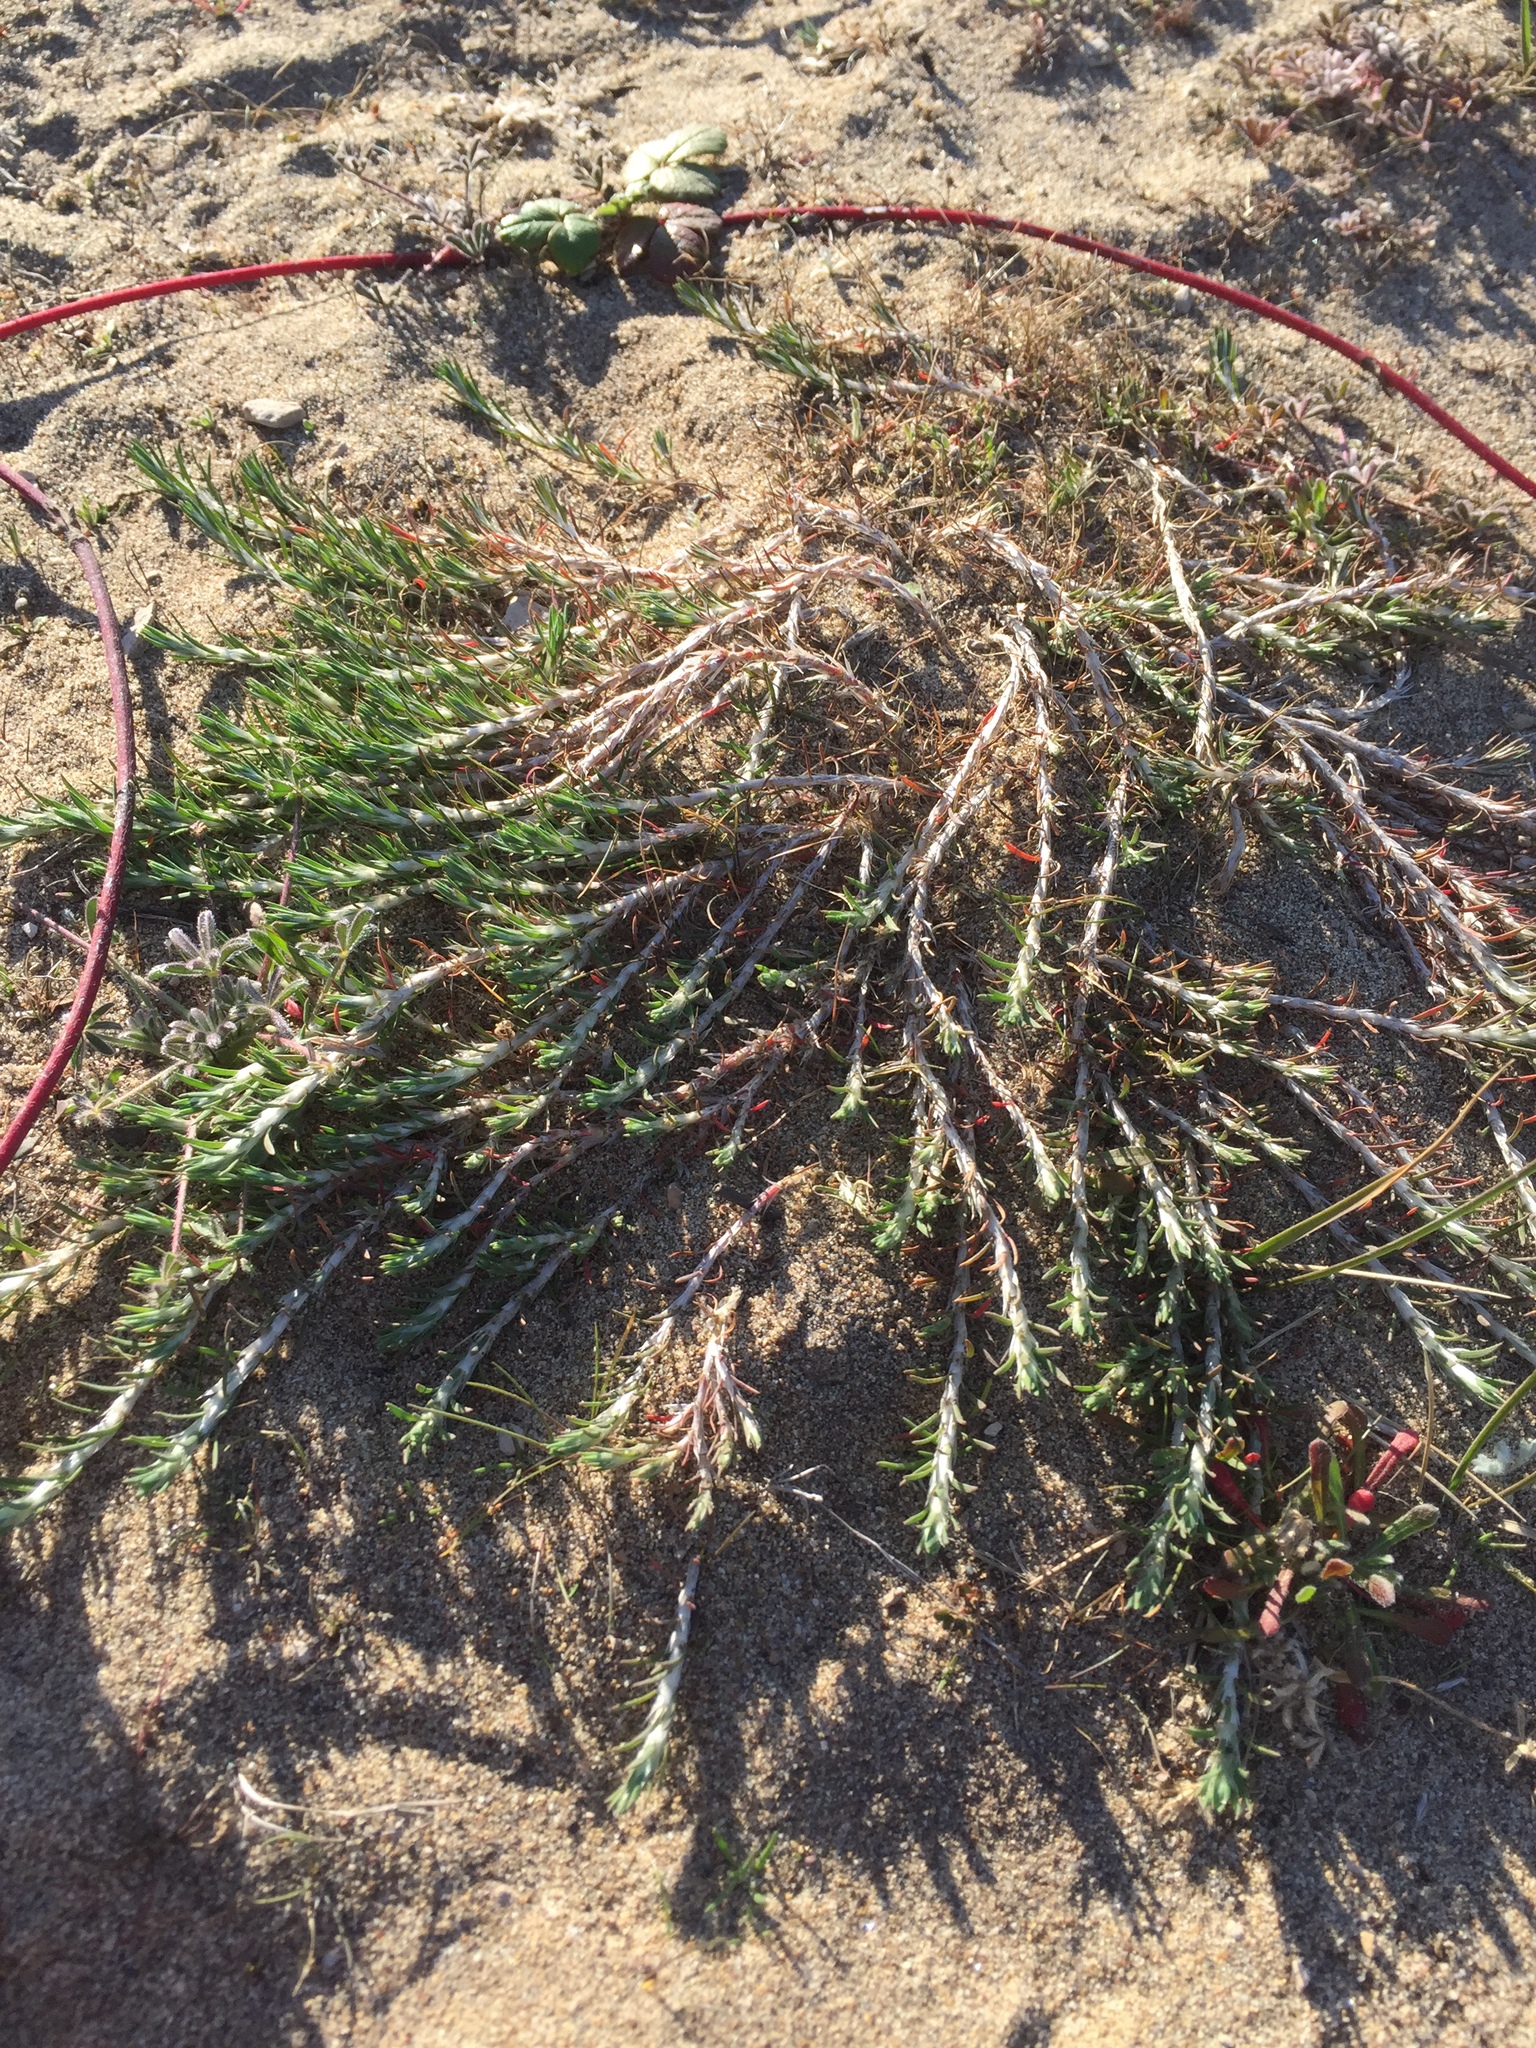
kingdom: Plantae
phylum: Tracheophyta
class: Magnoliopsida
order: Caryophyllales
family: Caryophyllaceae
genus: Cardionema
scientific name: Cardionema ramosissima
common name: Sandcarpet
